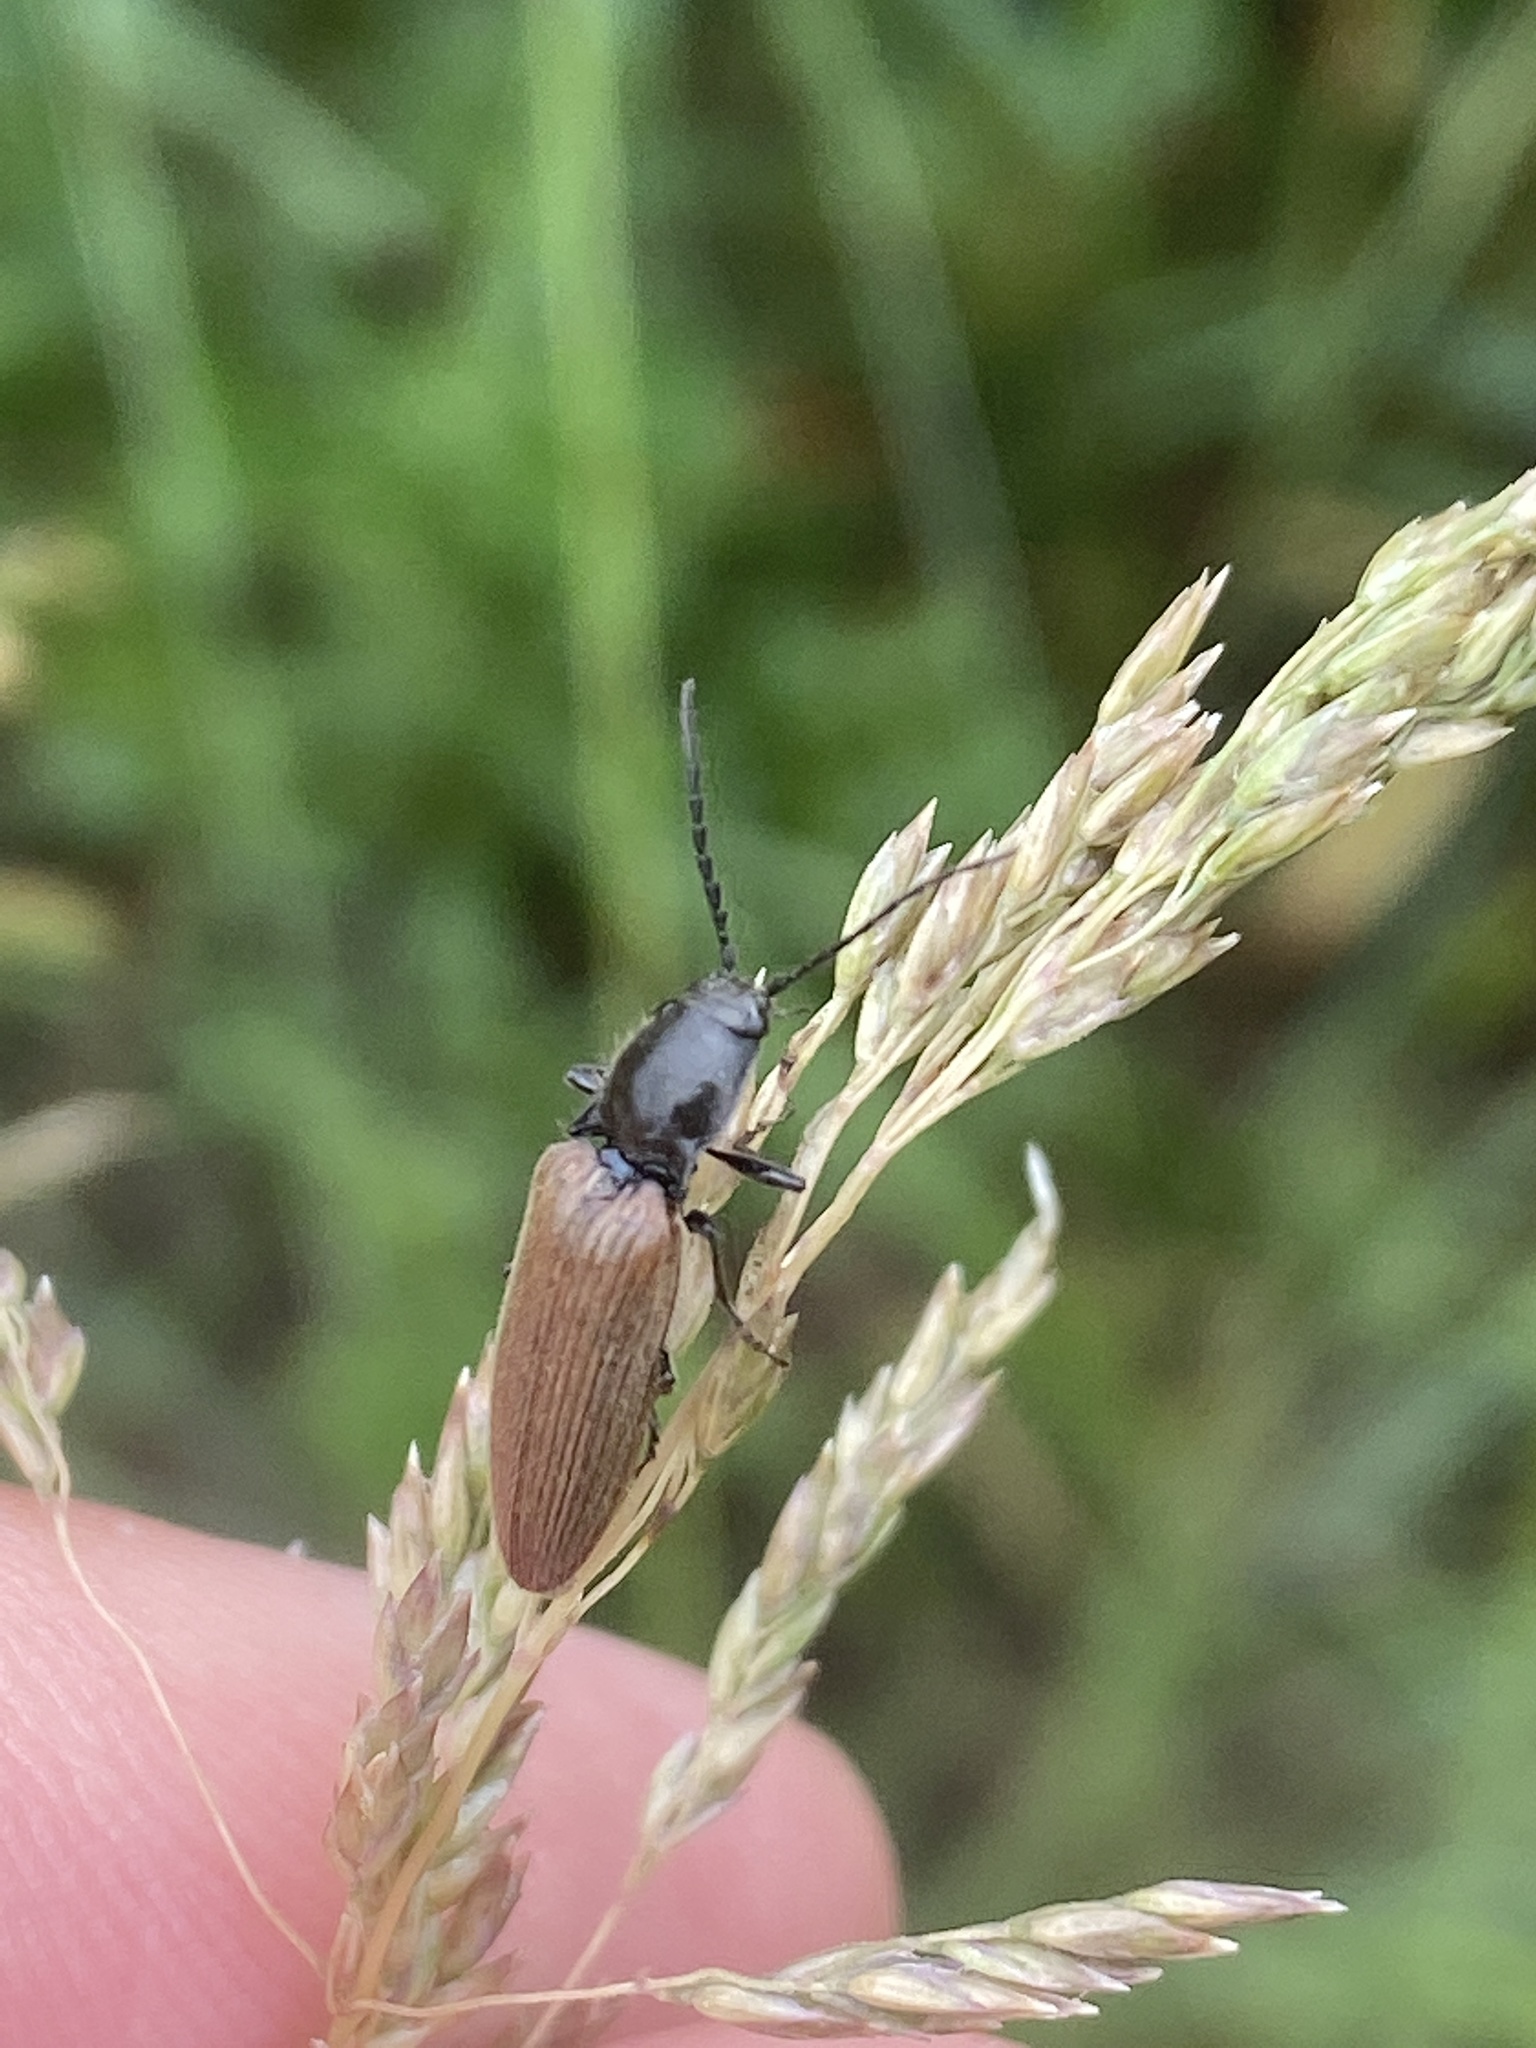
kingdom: Animalia
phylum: Arthropoda
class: Insecta
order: Coleoptera
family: Elateridae
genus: Hemicrepidius
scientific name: Hemicrepidius niger
